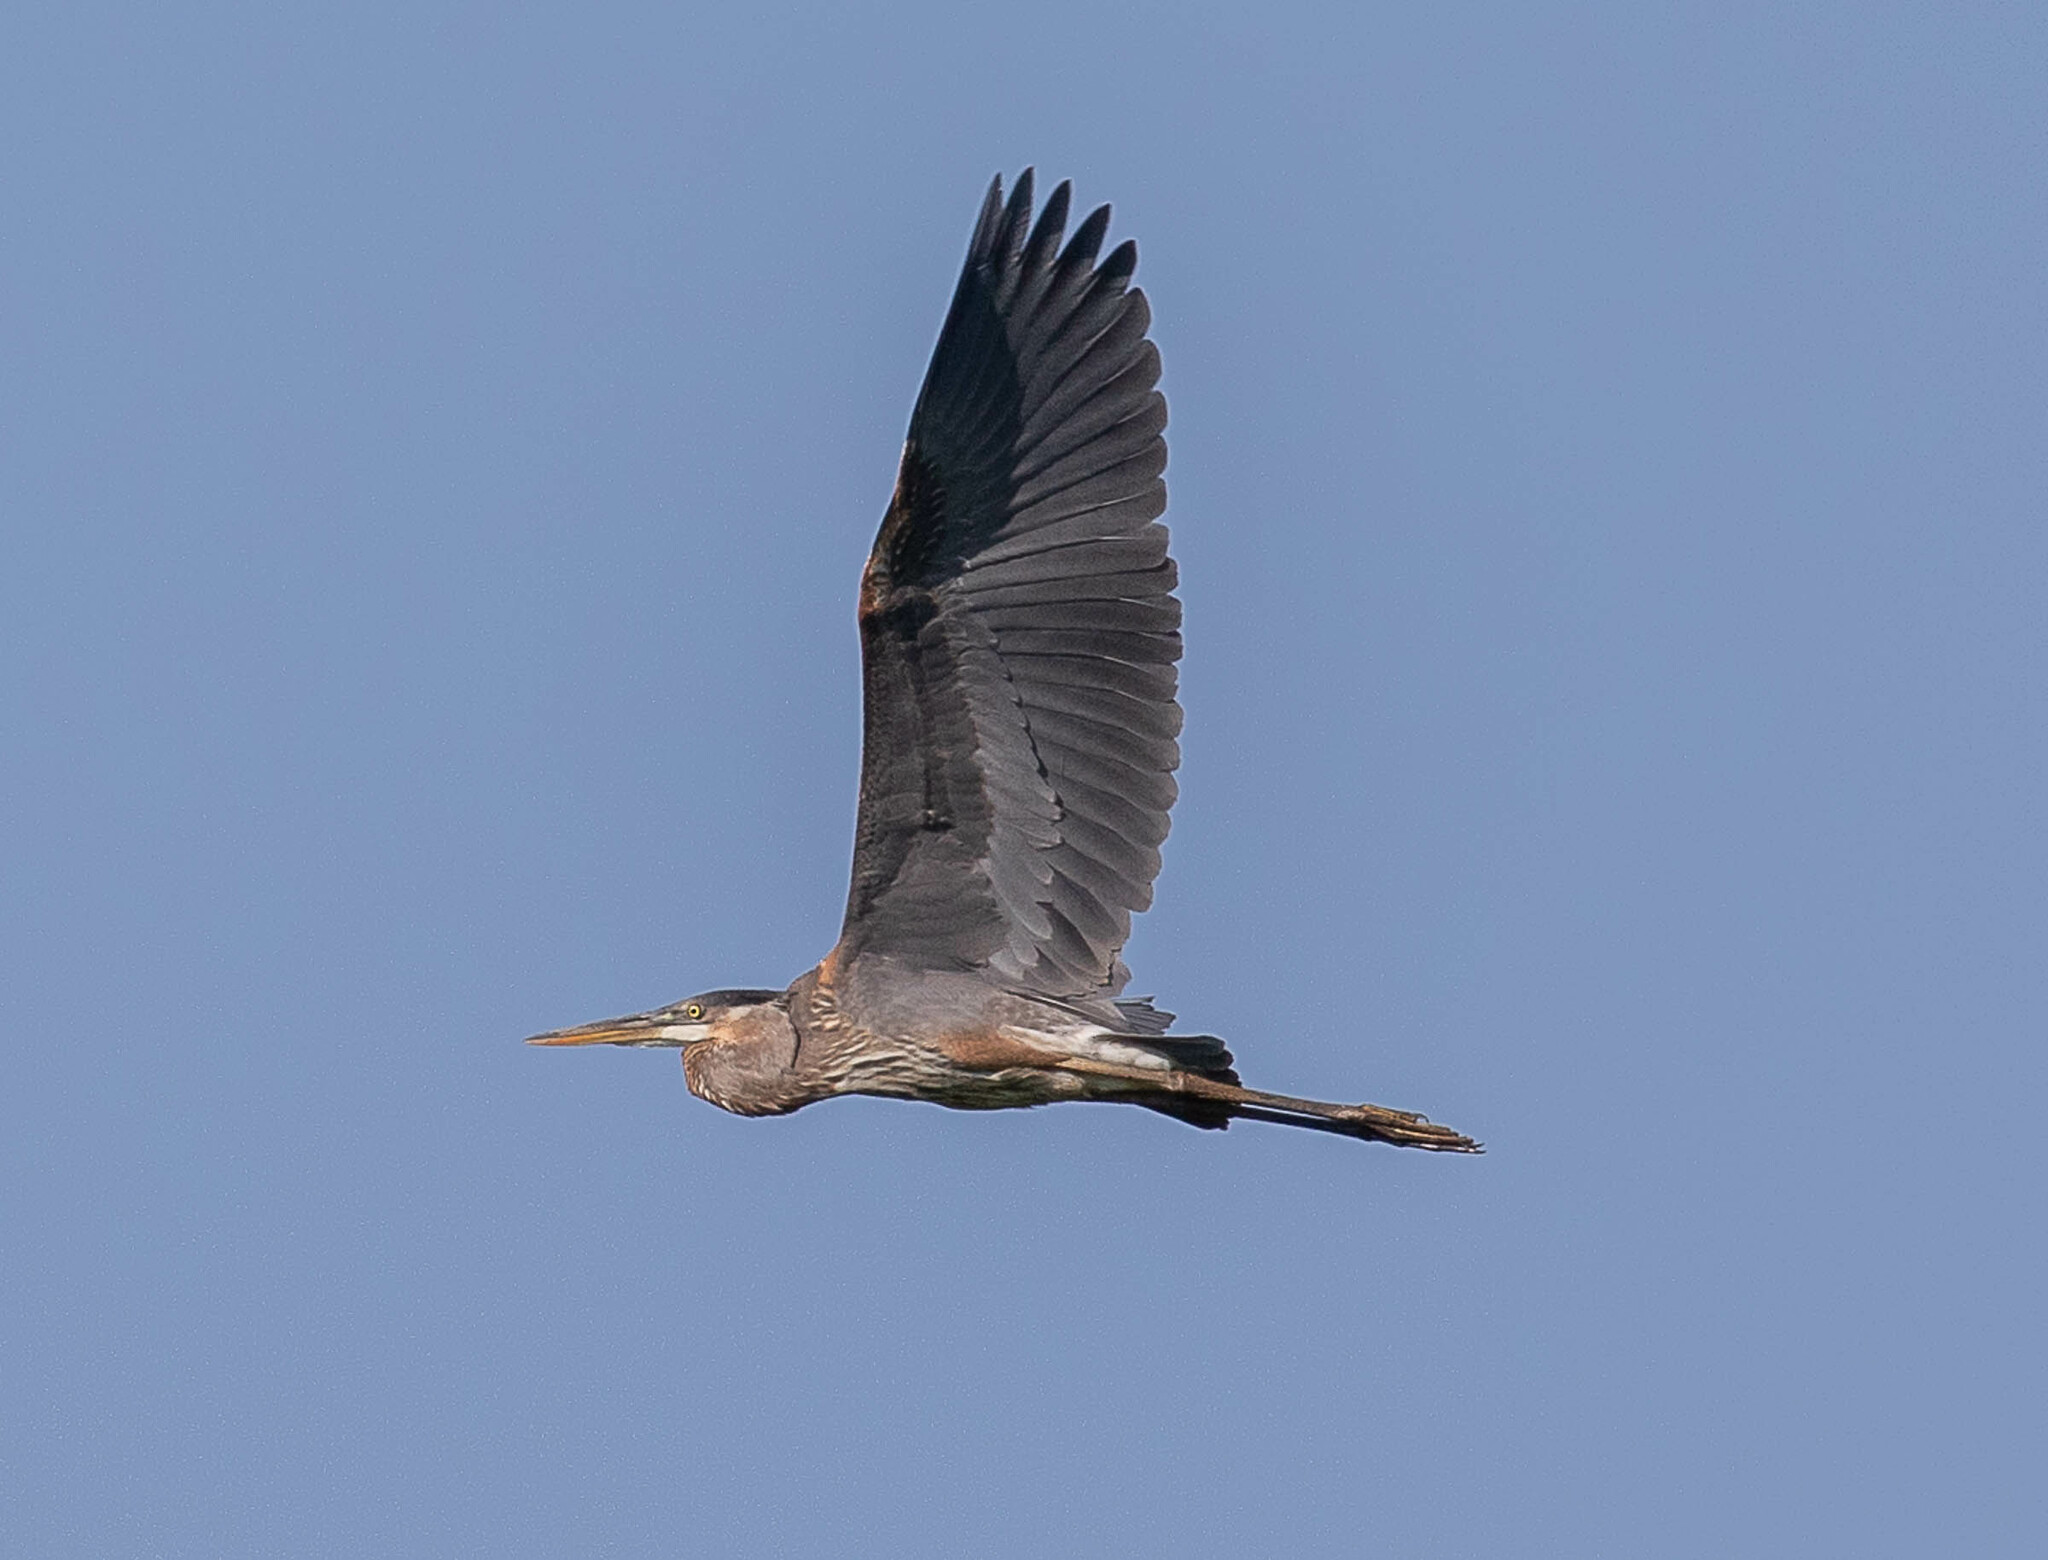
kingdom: Animalia
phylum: Chordata
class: Aves
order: Pelecaniformes
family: Ardeidae
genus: Ardea
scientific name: Ardea herodias
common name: Great blue heron
